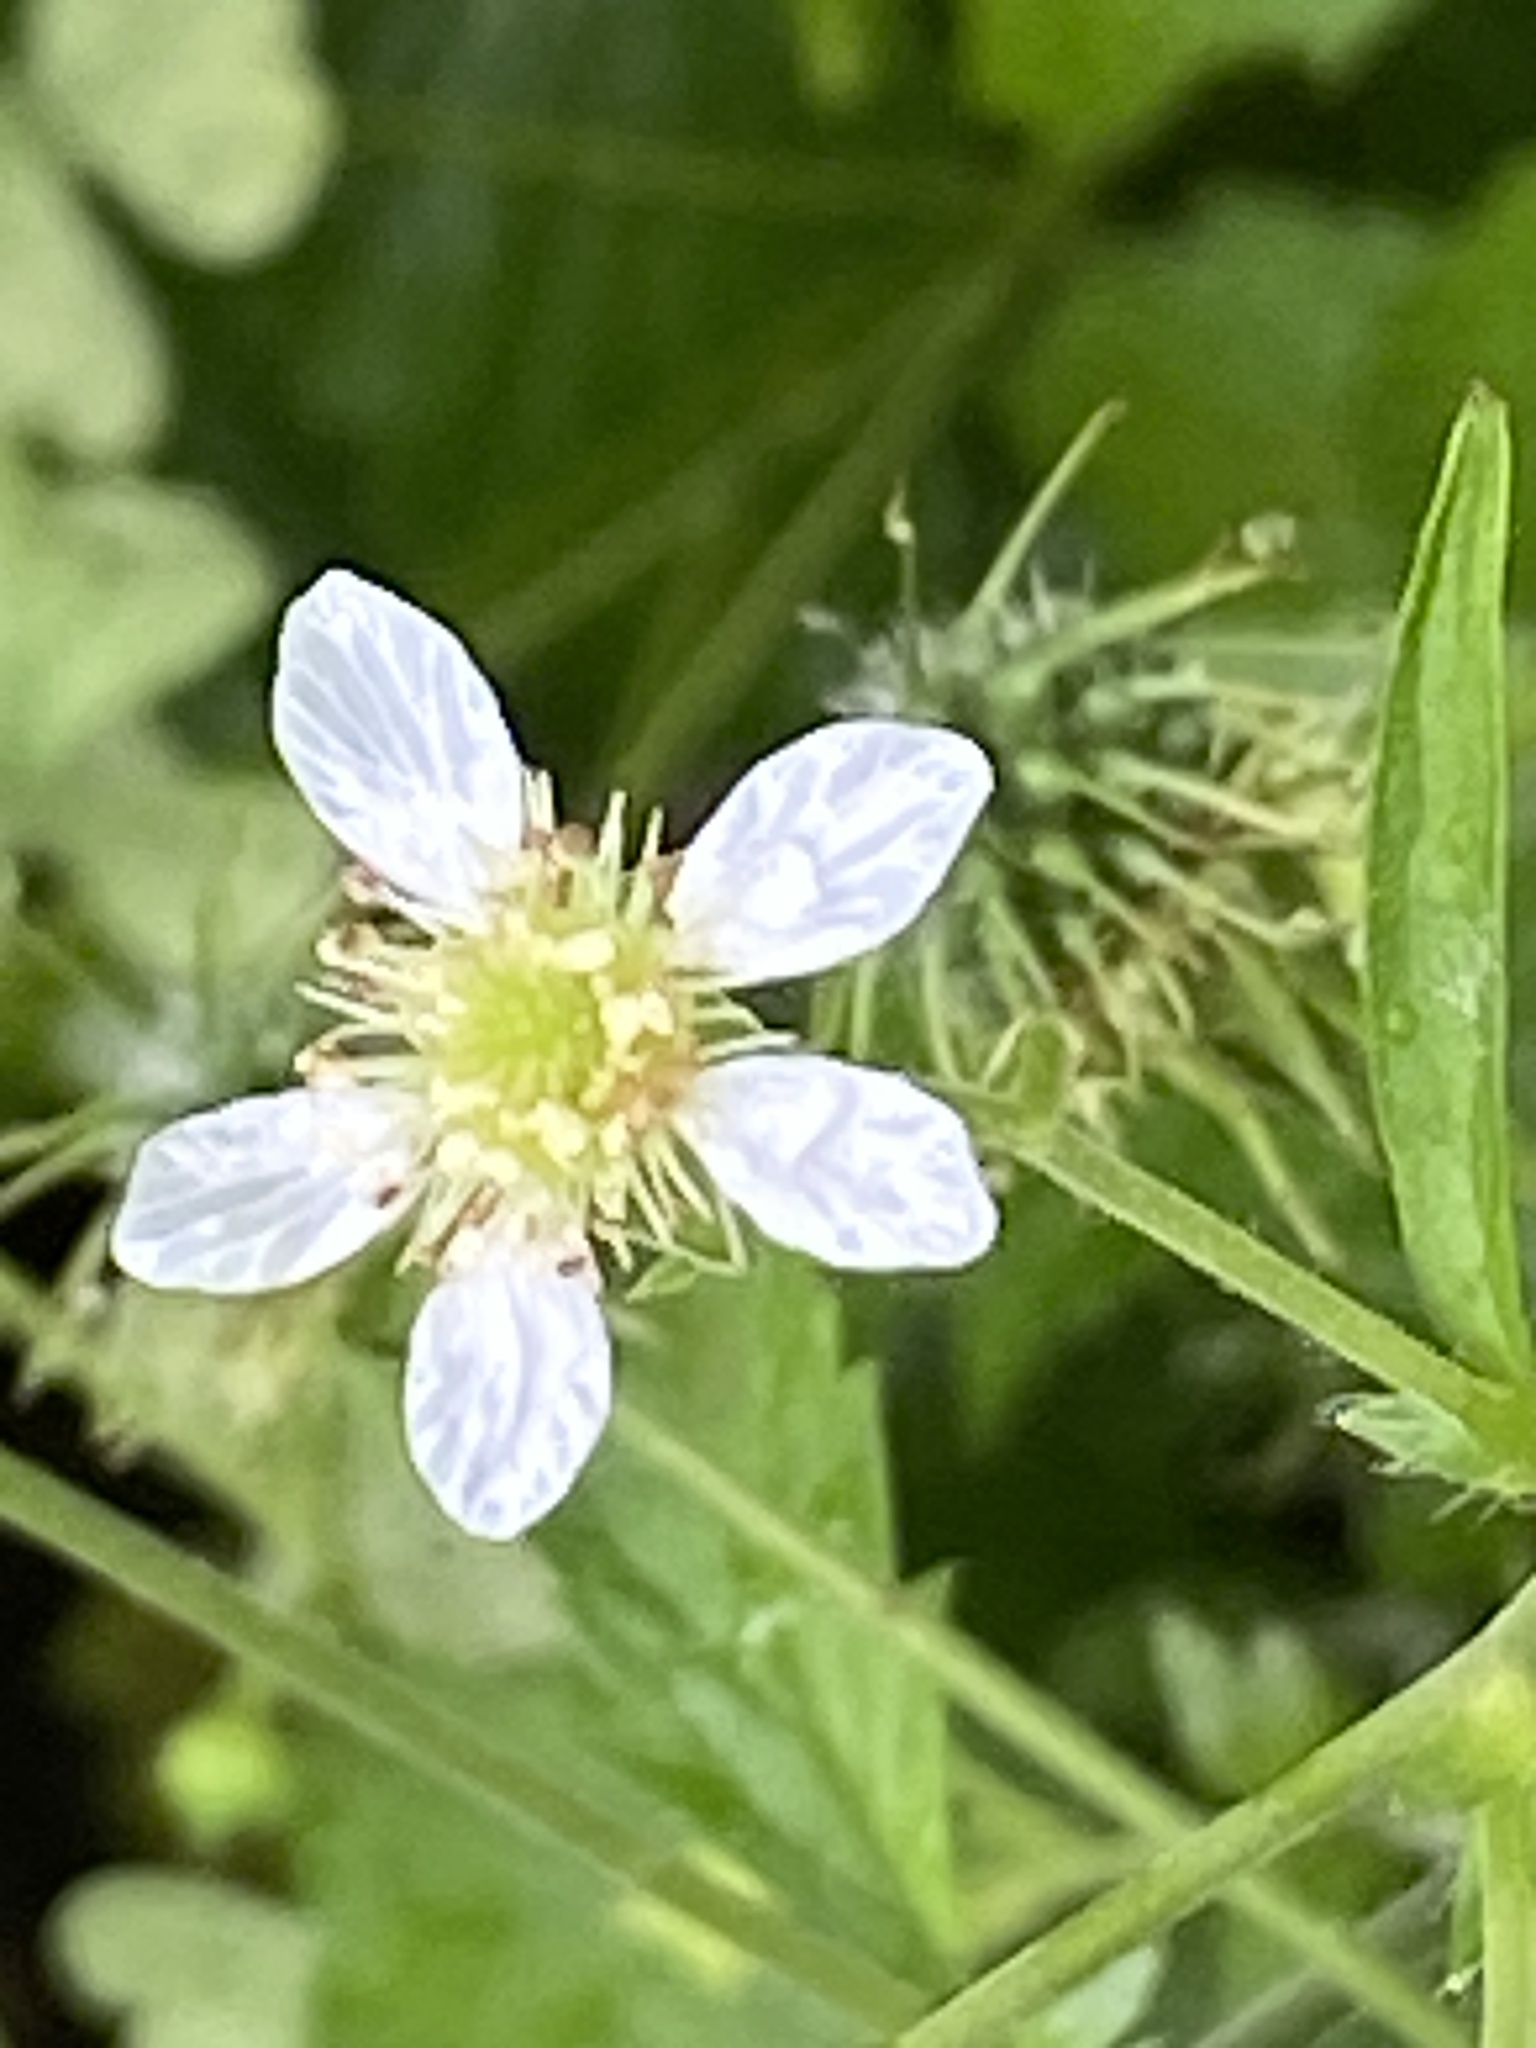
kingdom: Plantae
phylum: Tracheophyta
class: Magnoliopsida
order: Rosales
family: Rosaceae
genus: Geum
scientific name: Geum canadense
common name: White avens
